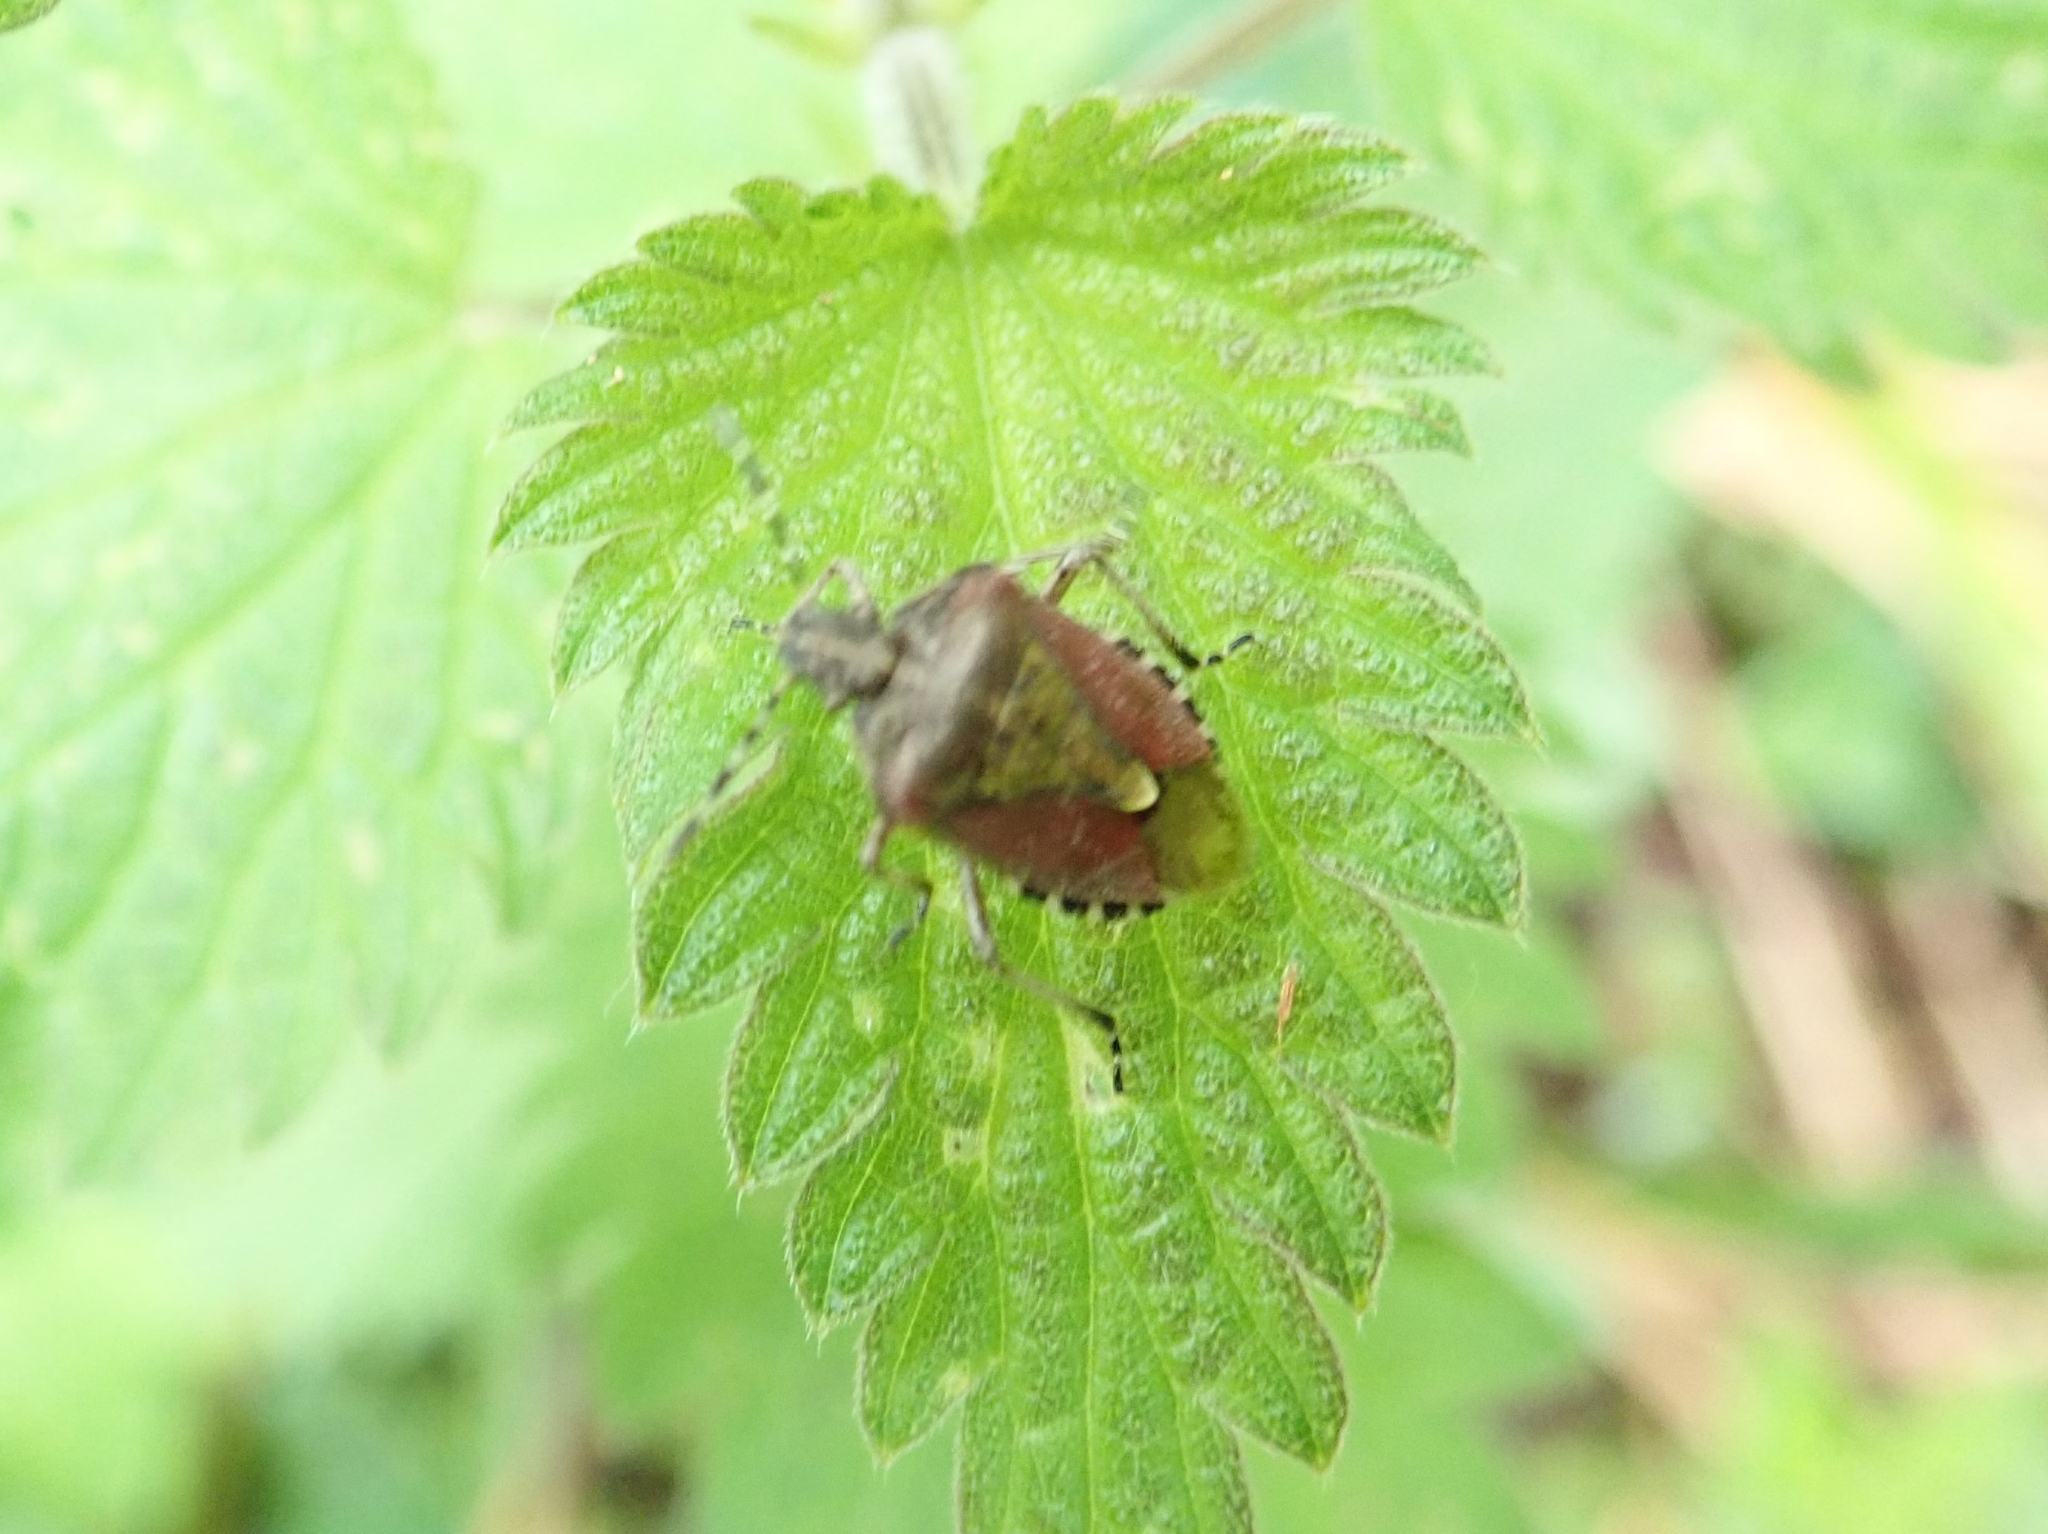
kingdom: Animalia
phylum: Arthropoda
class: Insecta
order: Hemiptera
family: Pentatomidae
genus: Dolycoris
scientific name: Dolycoris baccarum
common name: Sloe bug
